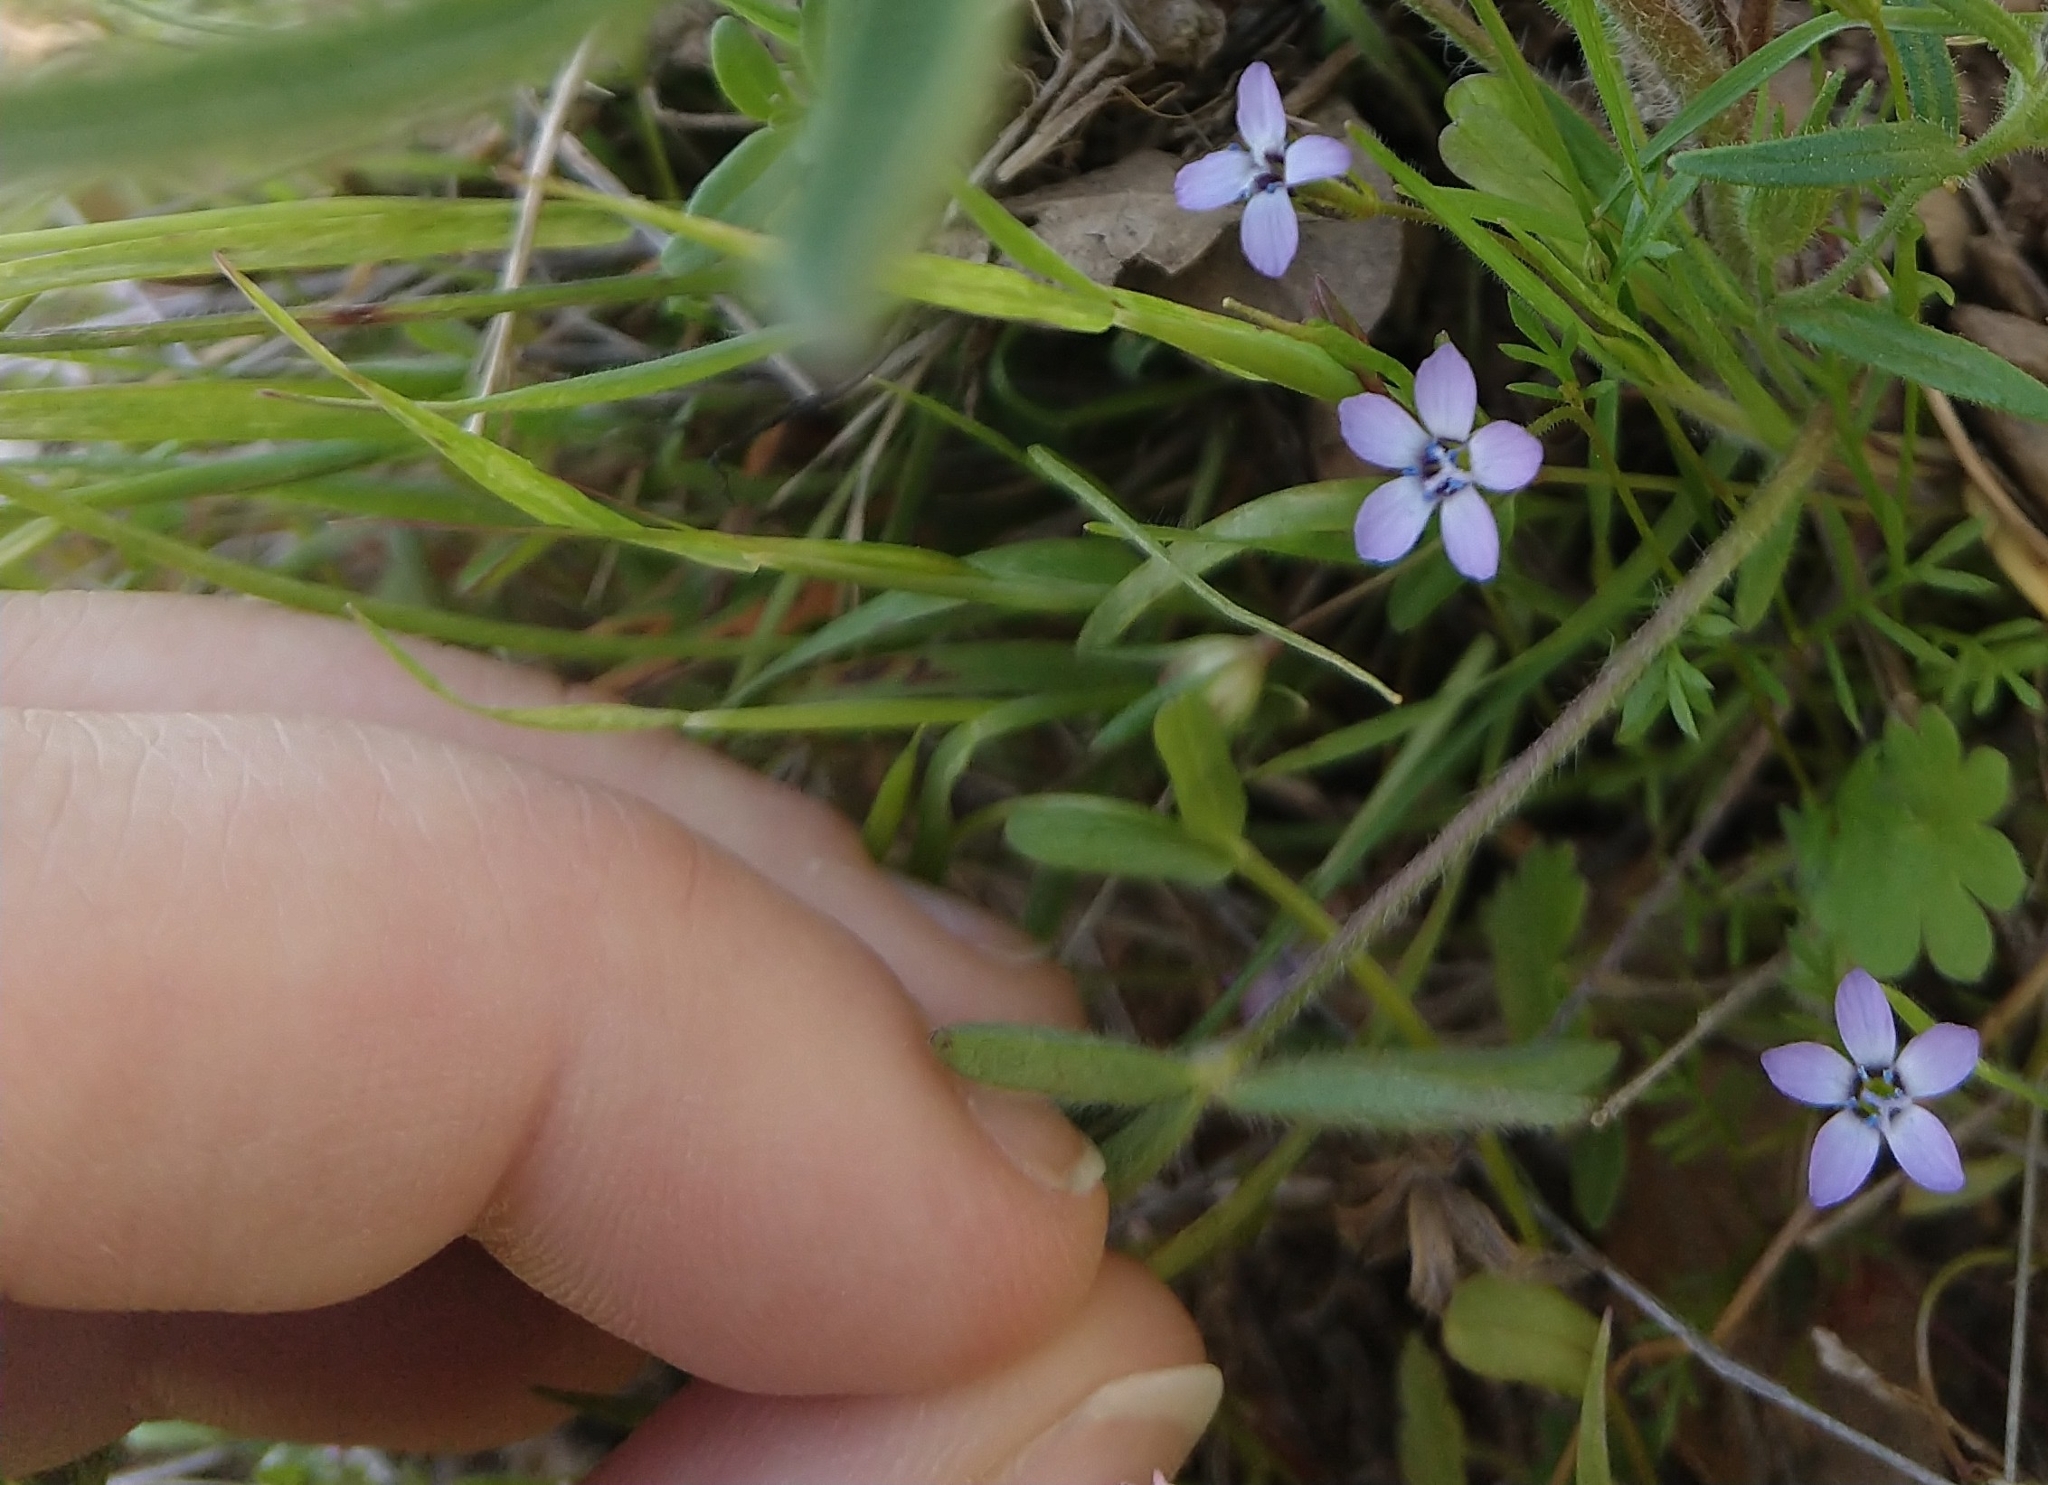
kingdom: Plantae
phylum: Tracheophyta
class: Magnoliopsida
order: Ericales
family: Polemoniaceae
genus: Gilia
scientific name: Gilia clivorum
